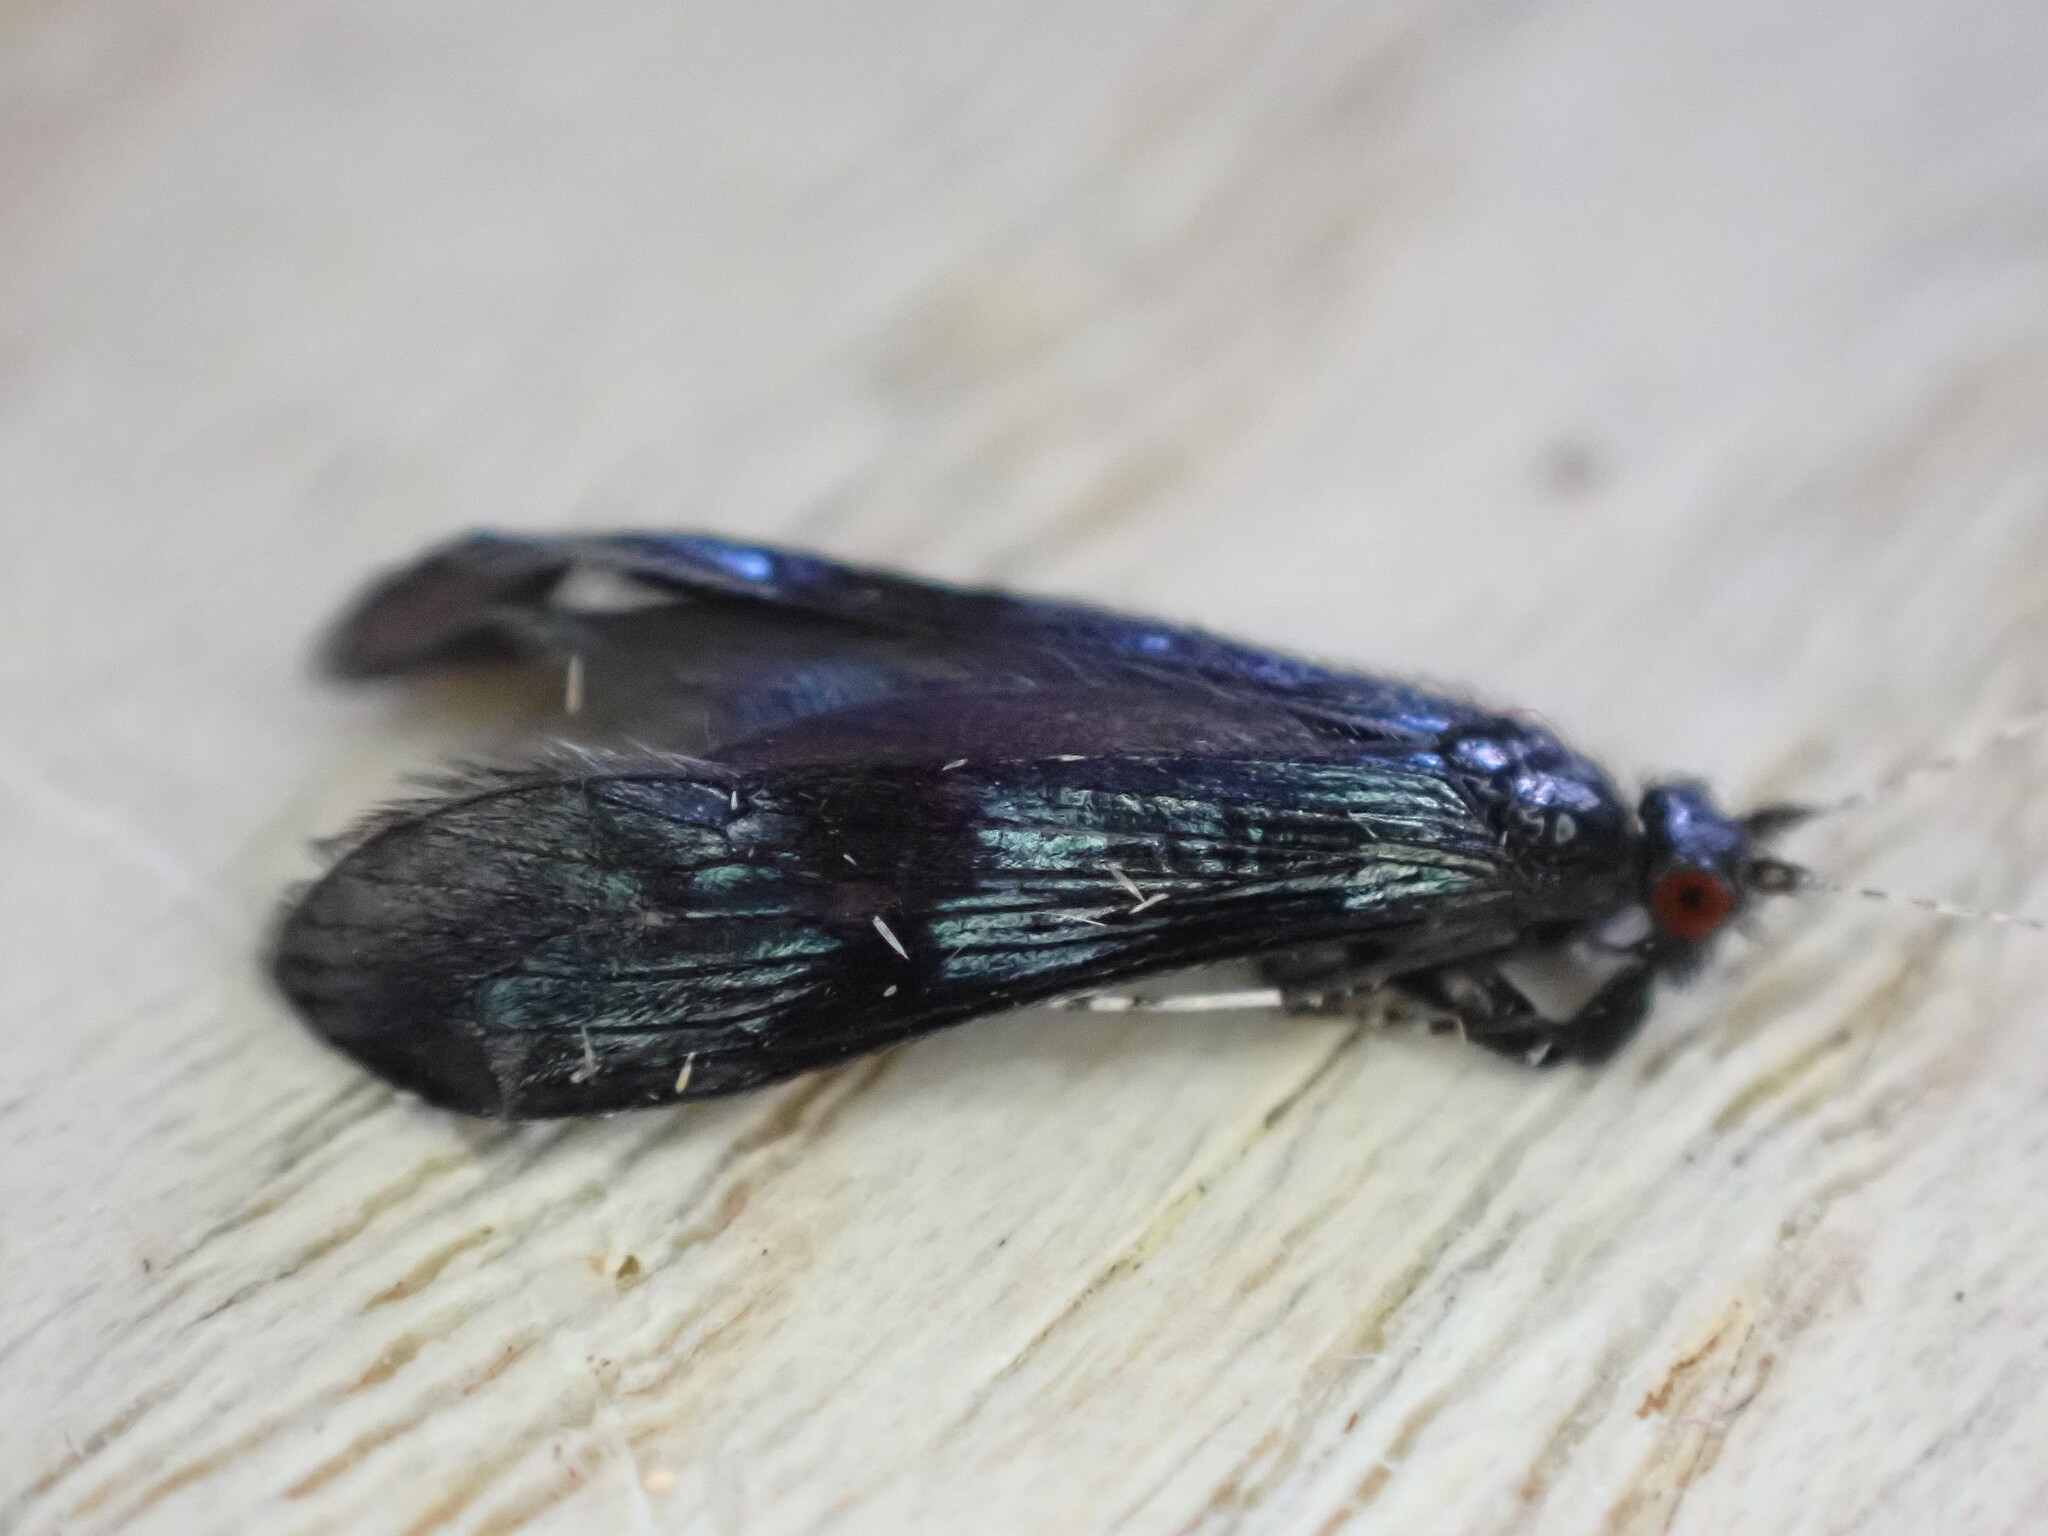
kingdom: Animalia
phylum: Arthropoda
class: Insecta
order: Trichoptera
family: Leptoceridae
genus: Mystacides
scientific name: Mystacides azureus
